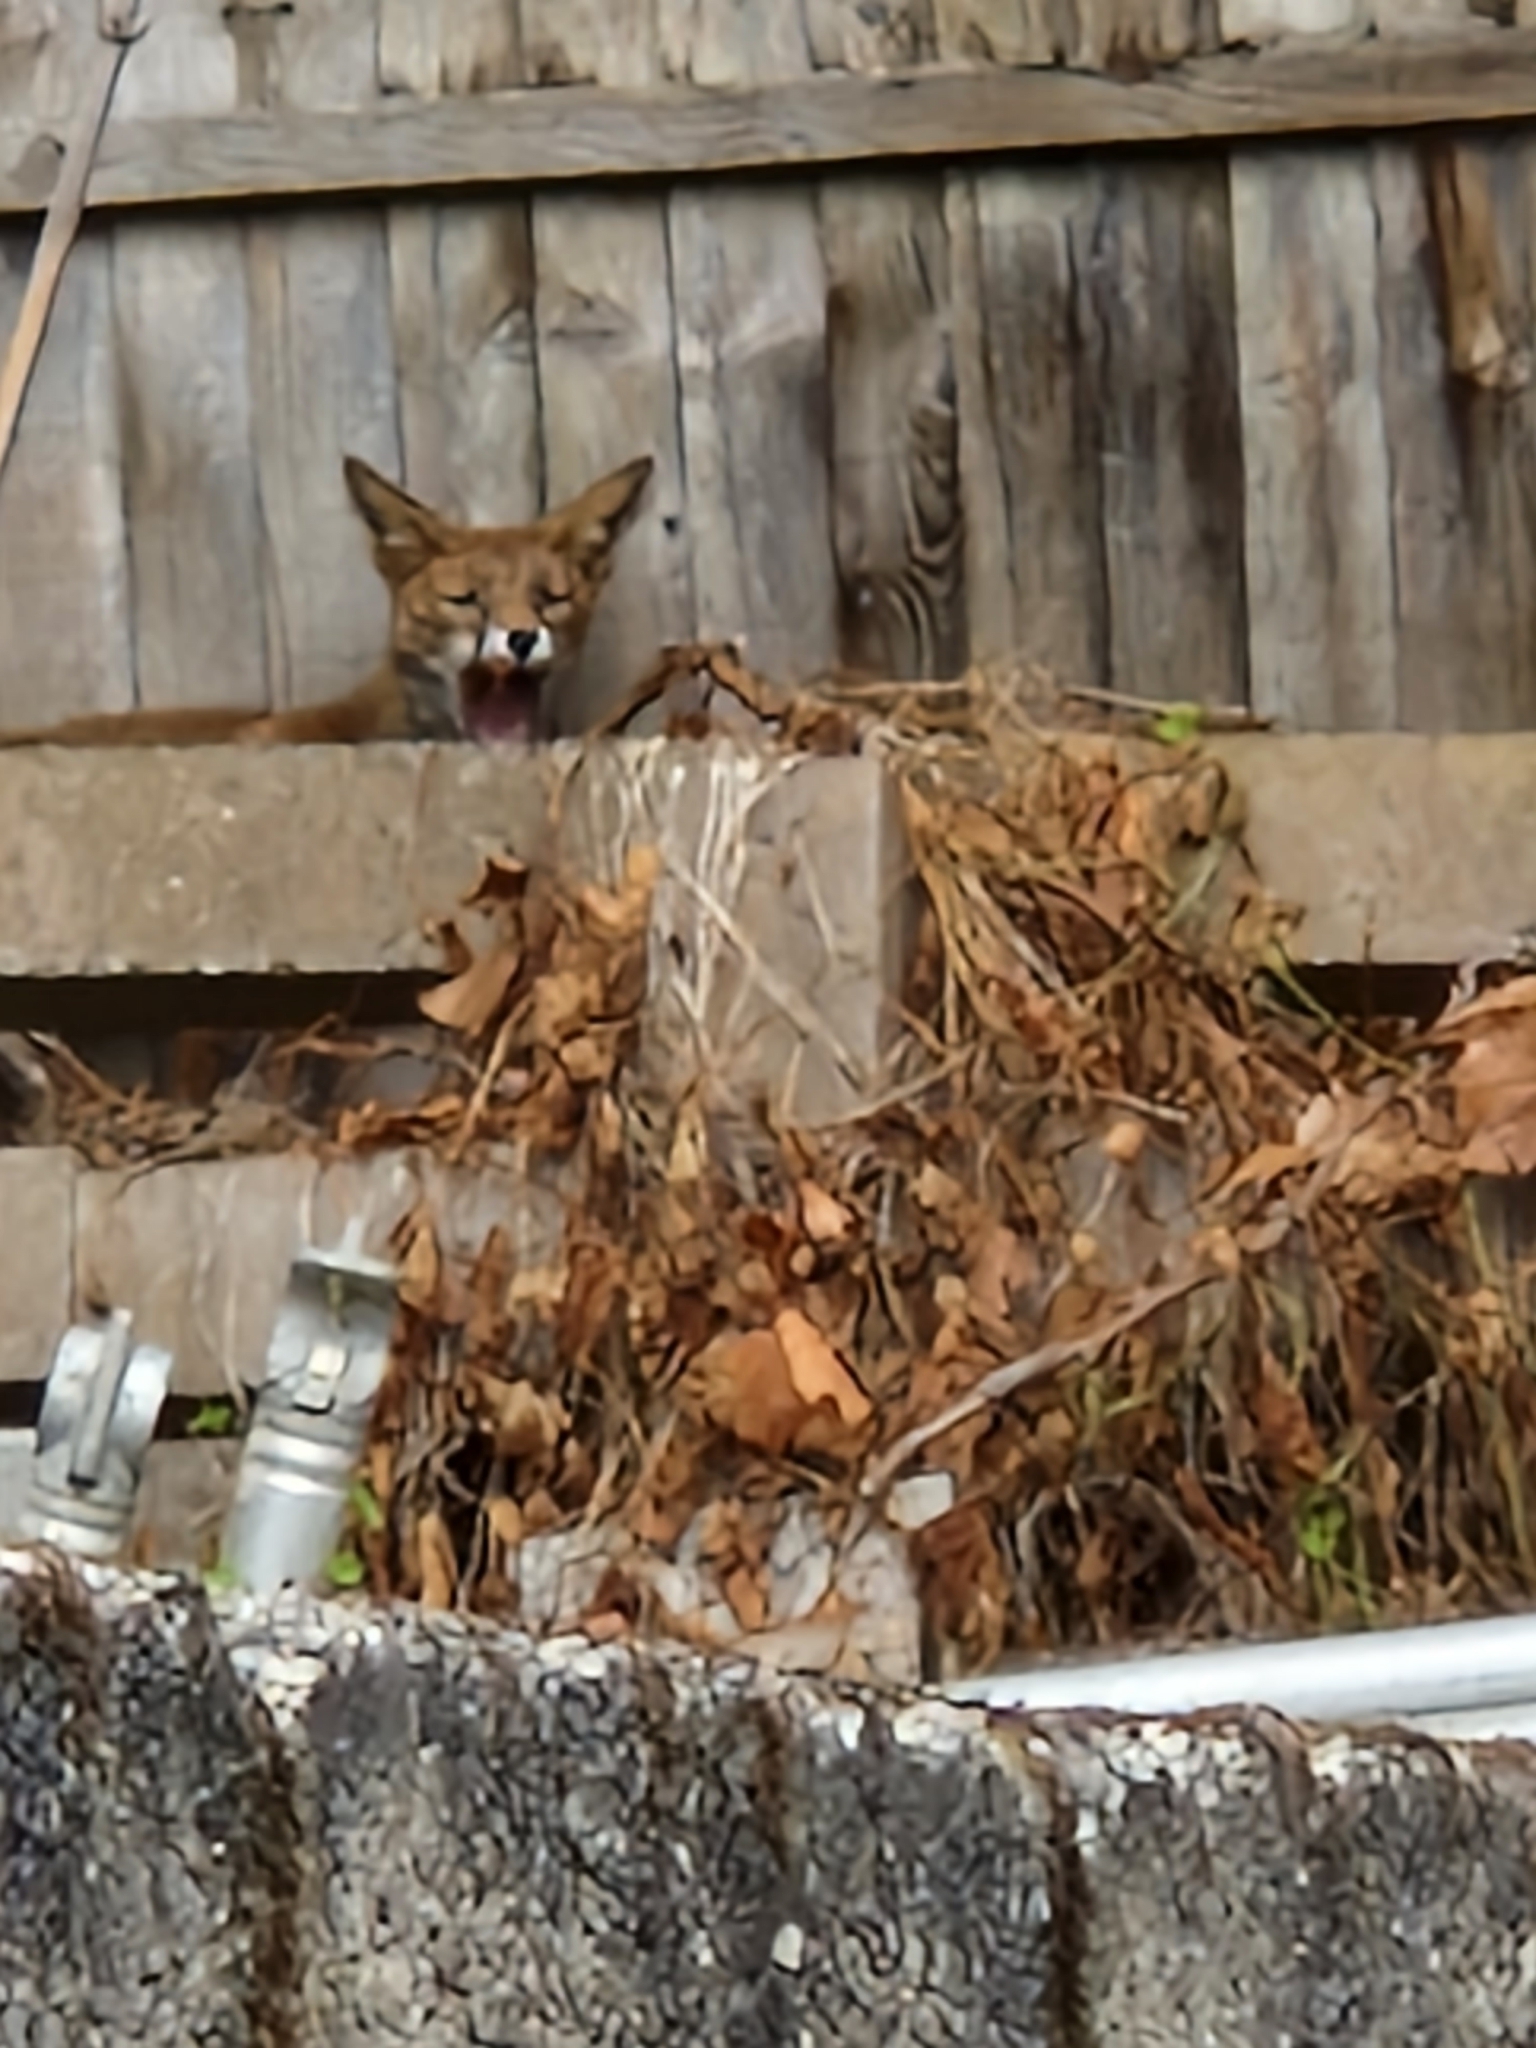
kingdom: Animalia
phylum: Chordata
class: Mammalia
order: Carnivora
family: Canidae
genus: Vulpes
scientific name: Vulpes vulpes
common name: Red fox
